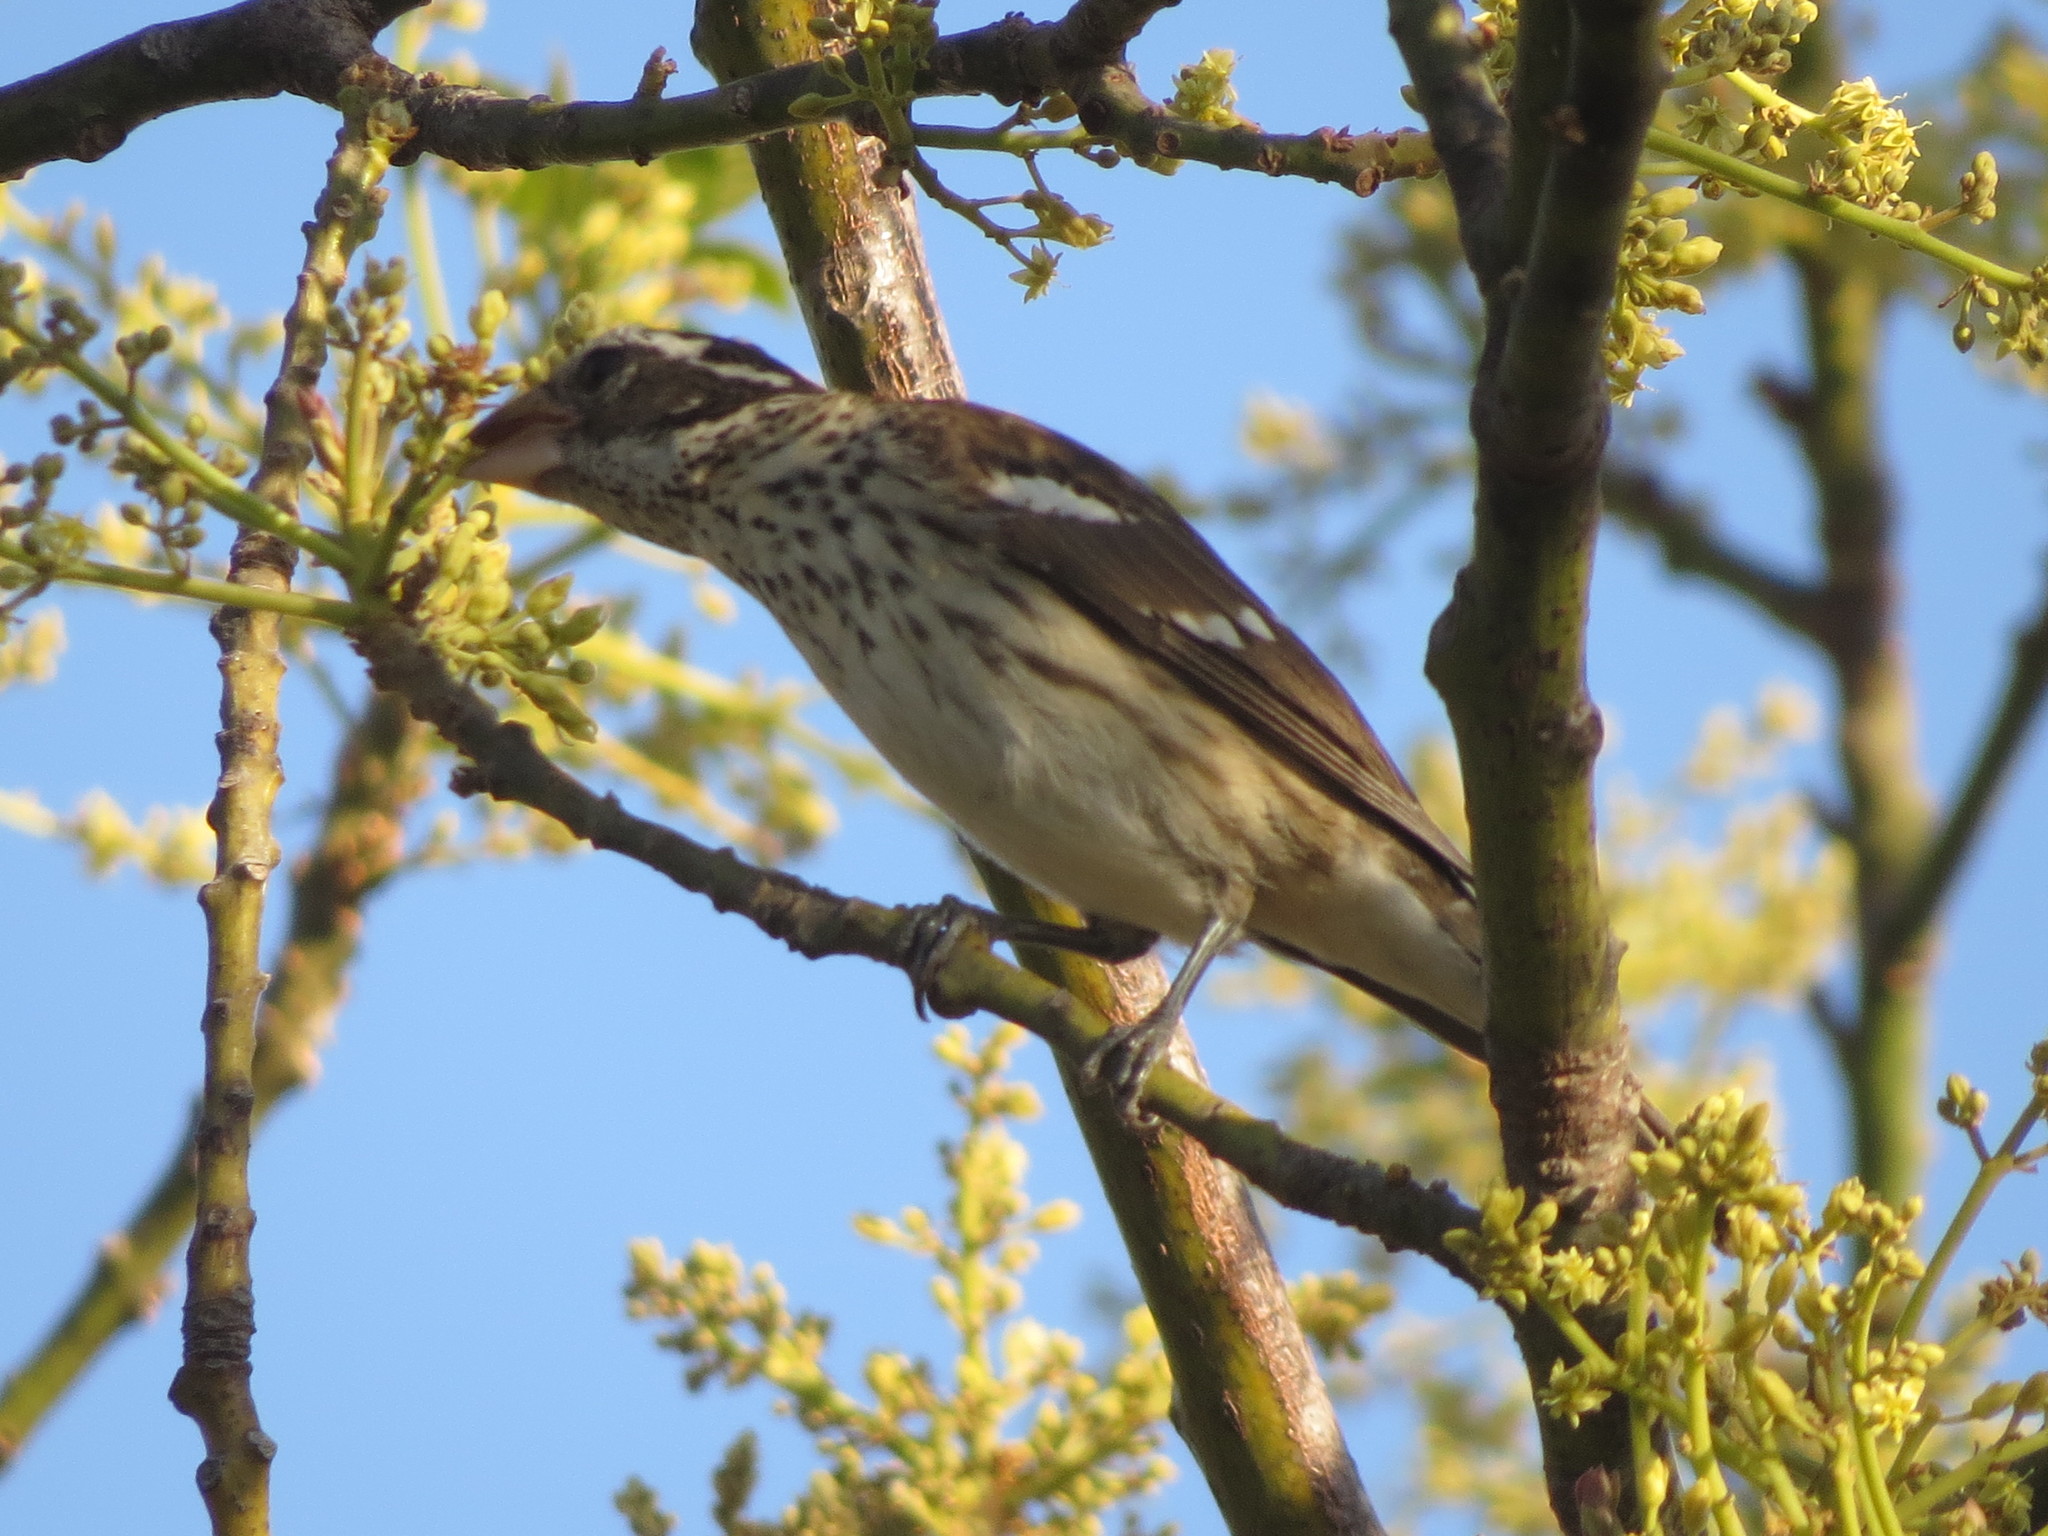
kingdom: Animalia
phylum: Chordata
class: Aves
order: Passeriformes
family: Cardinalidae
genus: Pheucticus
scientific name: Pheucticus ludovicianus
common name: Rose-breasted grosbeak
